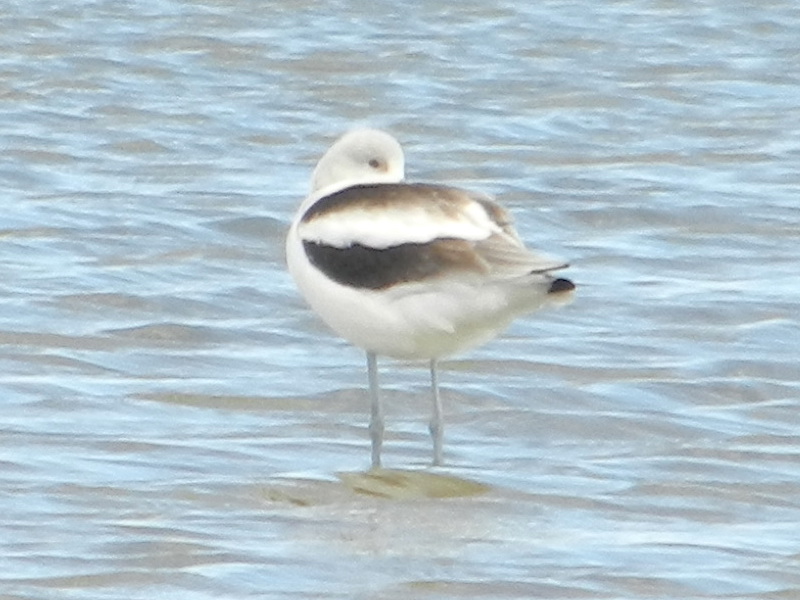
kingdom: Animalia
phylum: Chordata
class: Aves
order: Charadriiformes
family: Recurvirostridae
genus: Recurvirostra
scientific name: Recurvirostra americana
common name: American avocet
